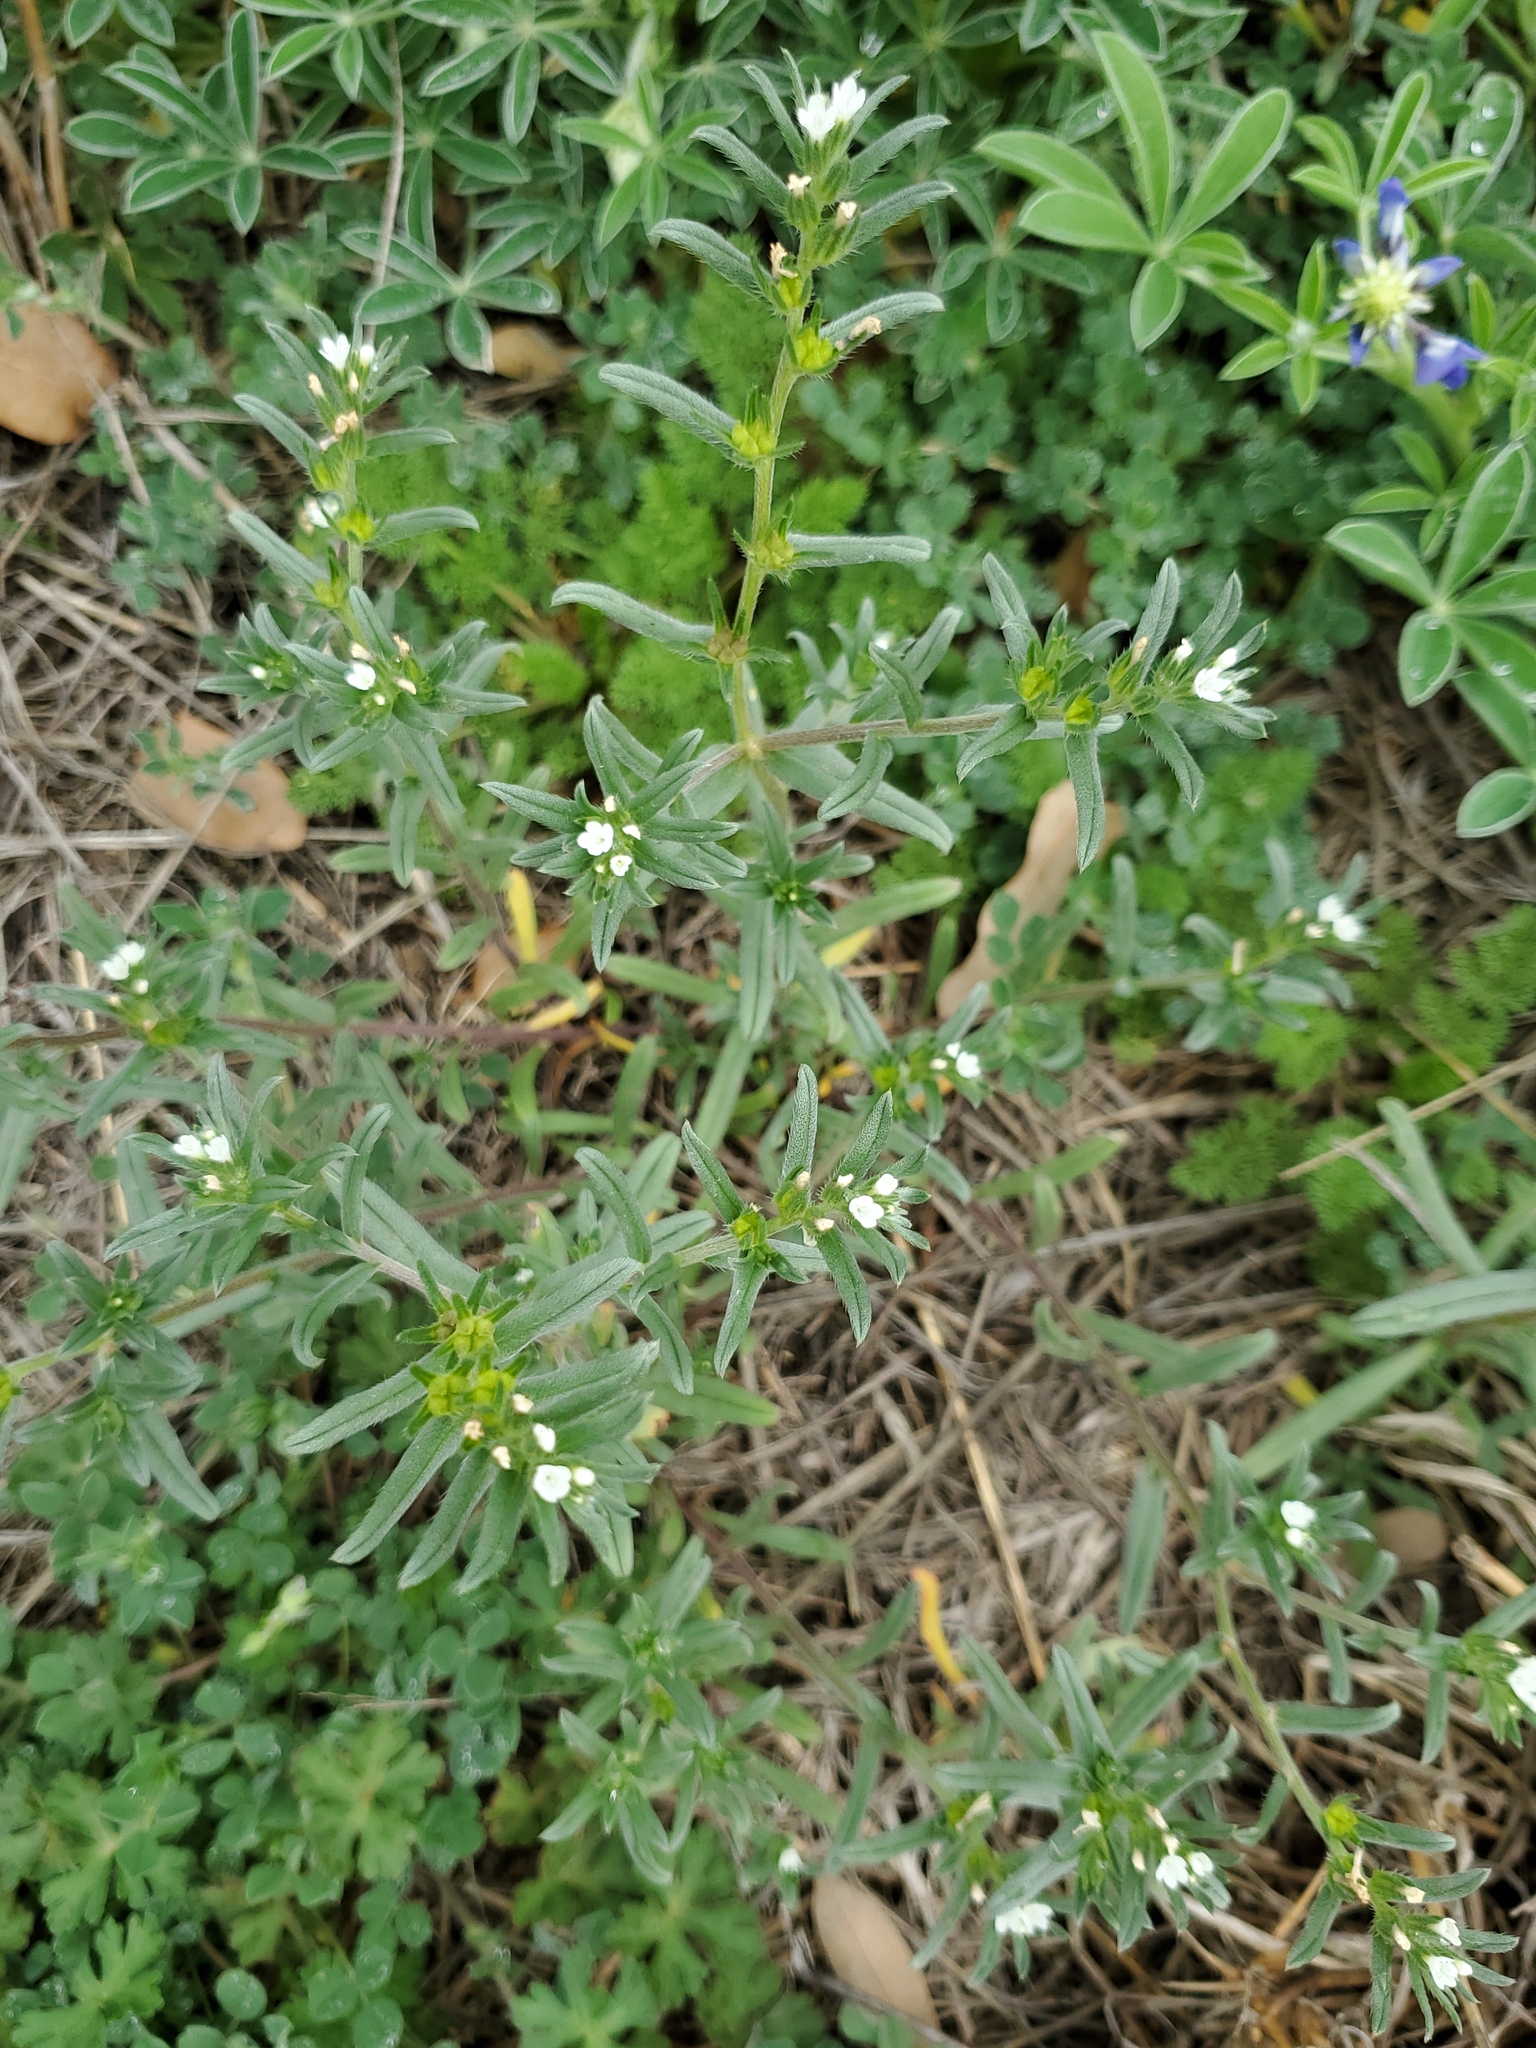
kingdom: Plantae
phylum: Tracheophyta
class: Magnoliopsida
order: Boraginales
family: Boraginaceae
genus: Buglossoides
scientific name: Buglossoides arvensis
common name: Corn gromwell
